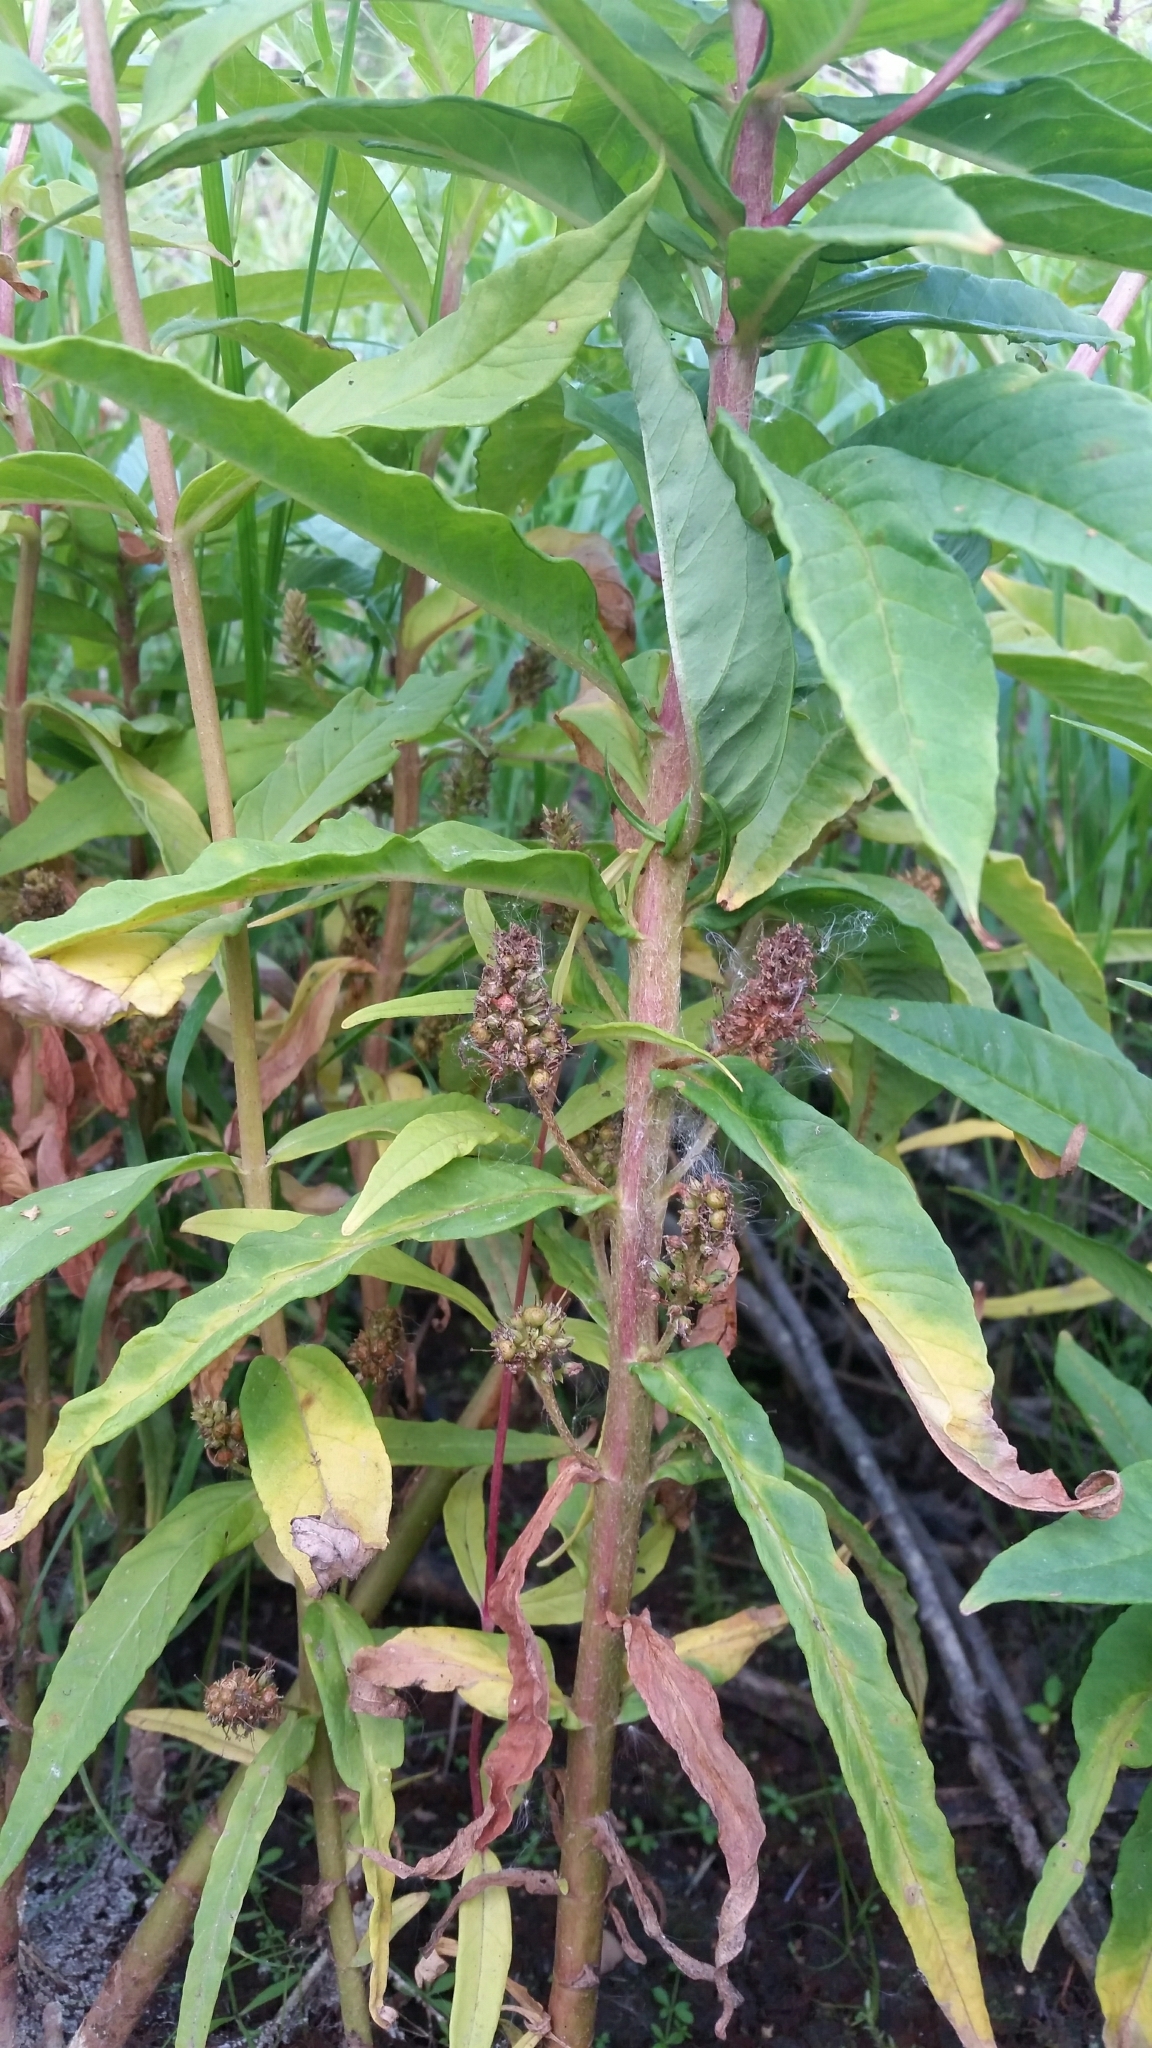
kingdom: Plantae
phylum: Tracheophyta
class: Magnoliopsida
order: Ericales
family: Primulaceae
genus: Lysimachia
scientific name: Lysimachia thyrsiflora
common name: Tufted loosestrife
